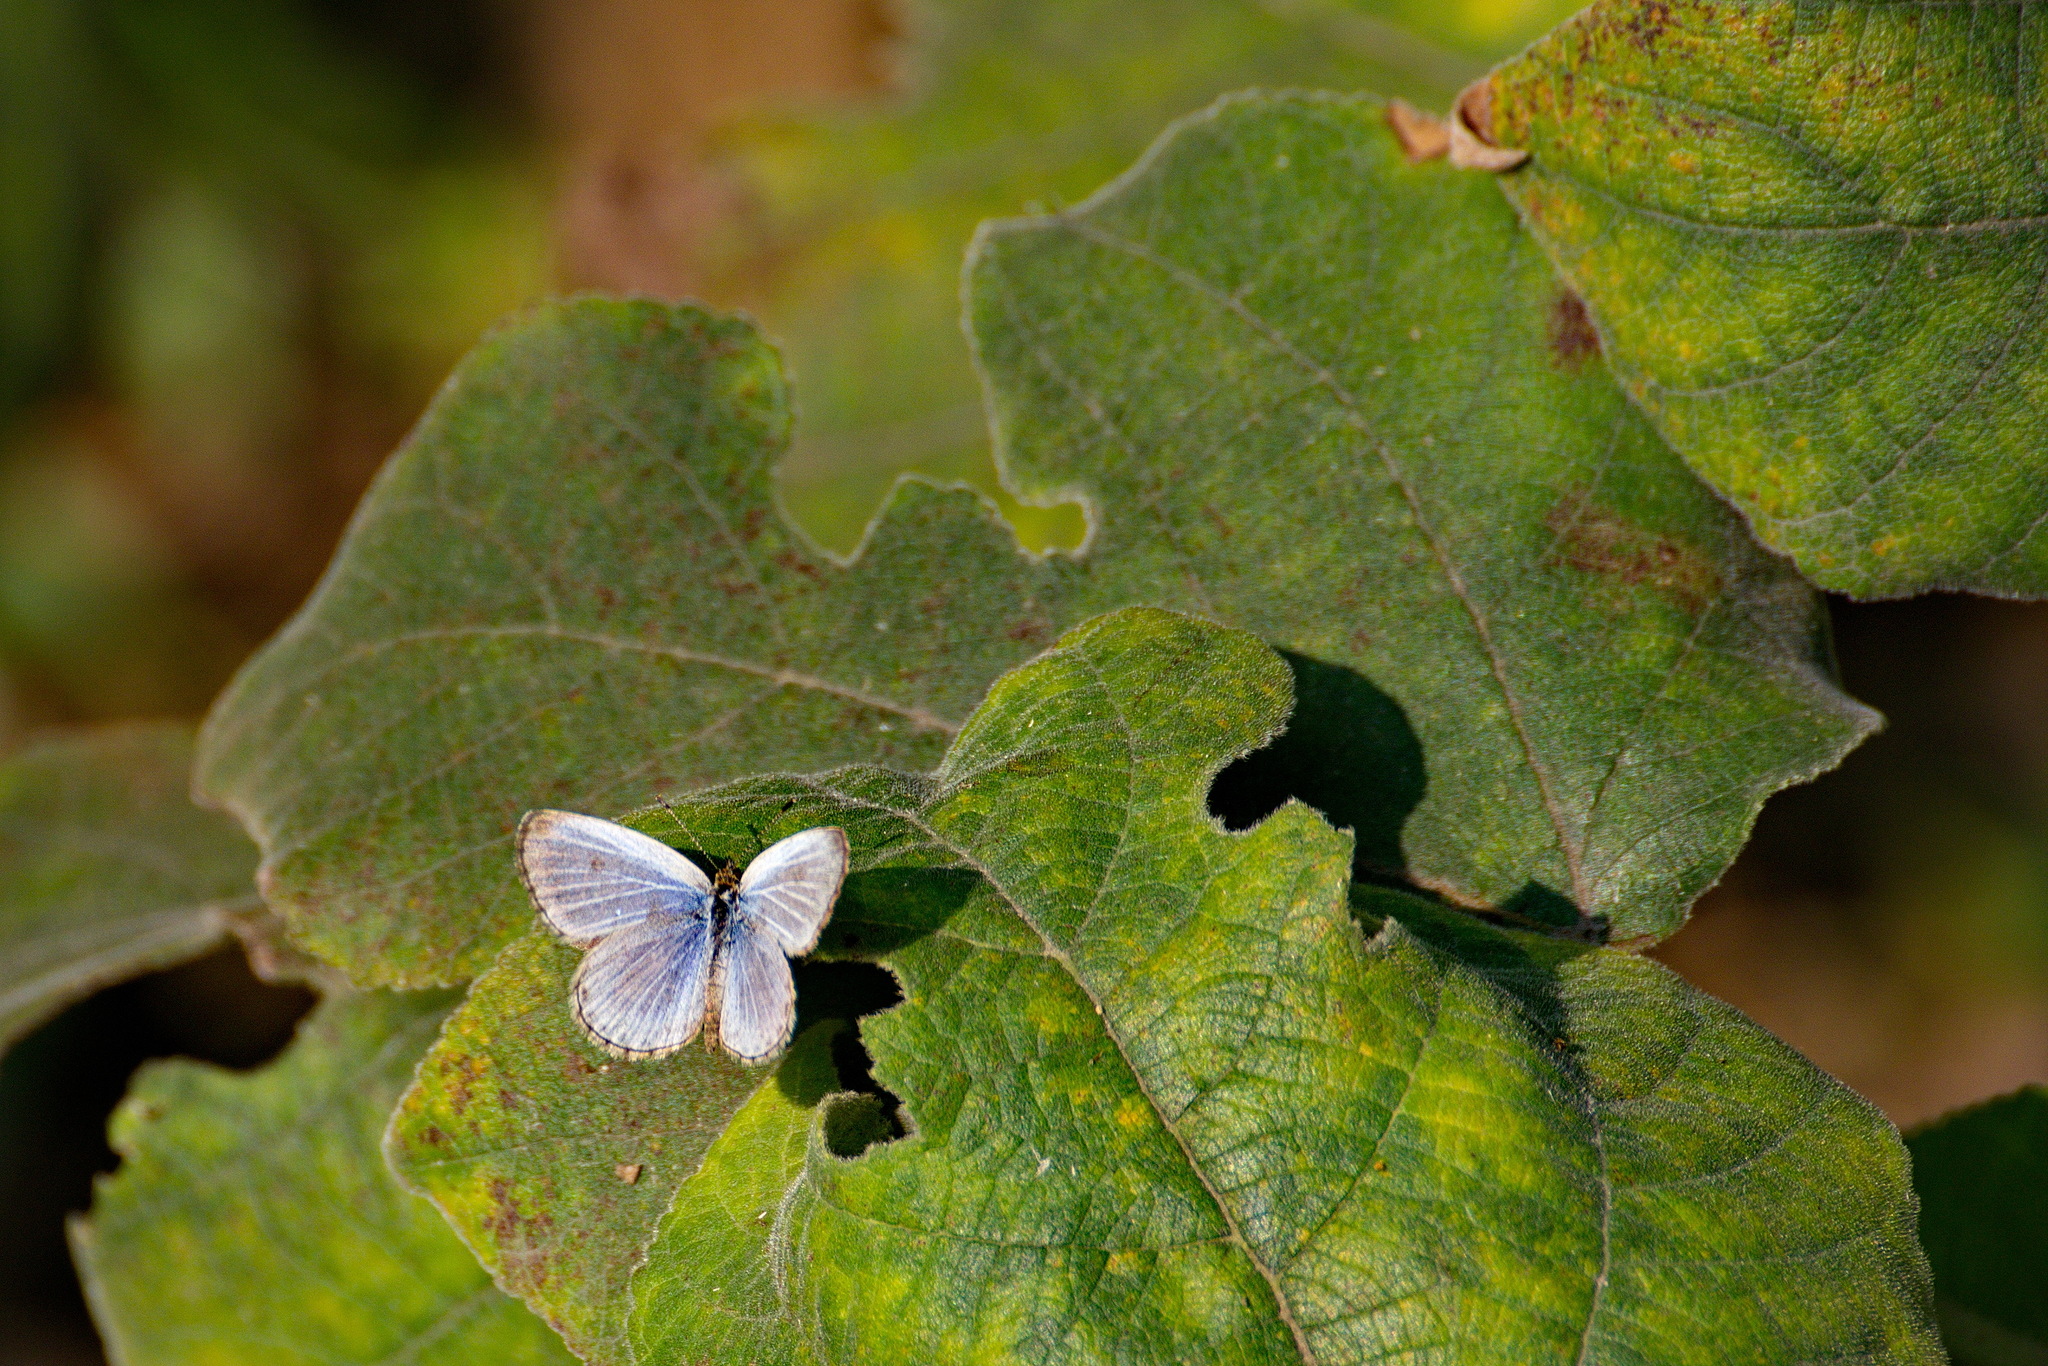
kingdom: Animalia
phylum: Arthropoda
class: Insecta
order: Lepidoptera
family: Lycaenidae
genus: Pseudozizeeria
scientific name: Pseudozizeeria maha
